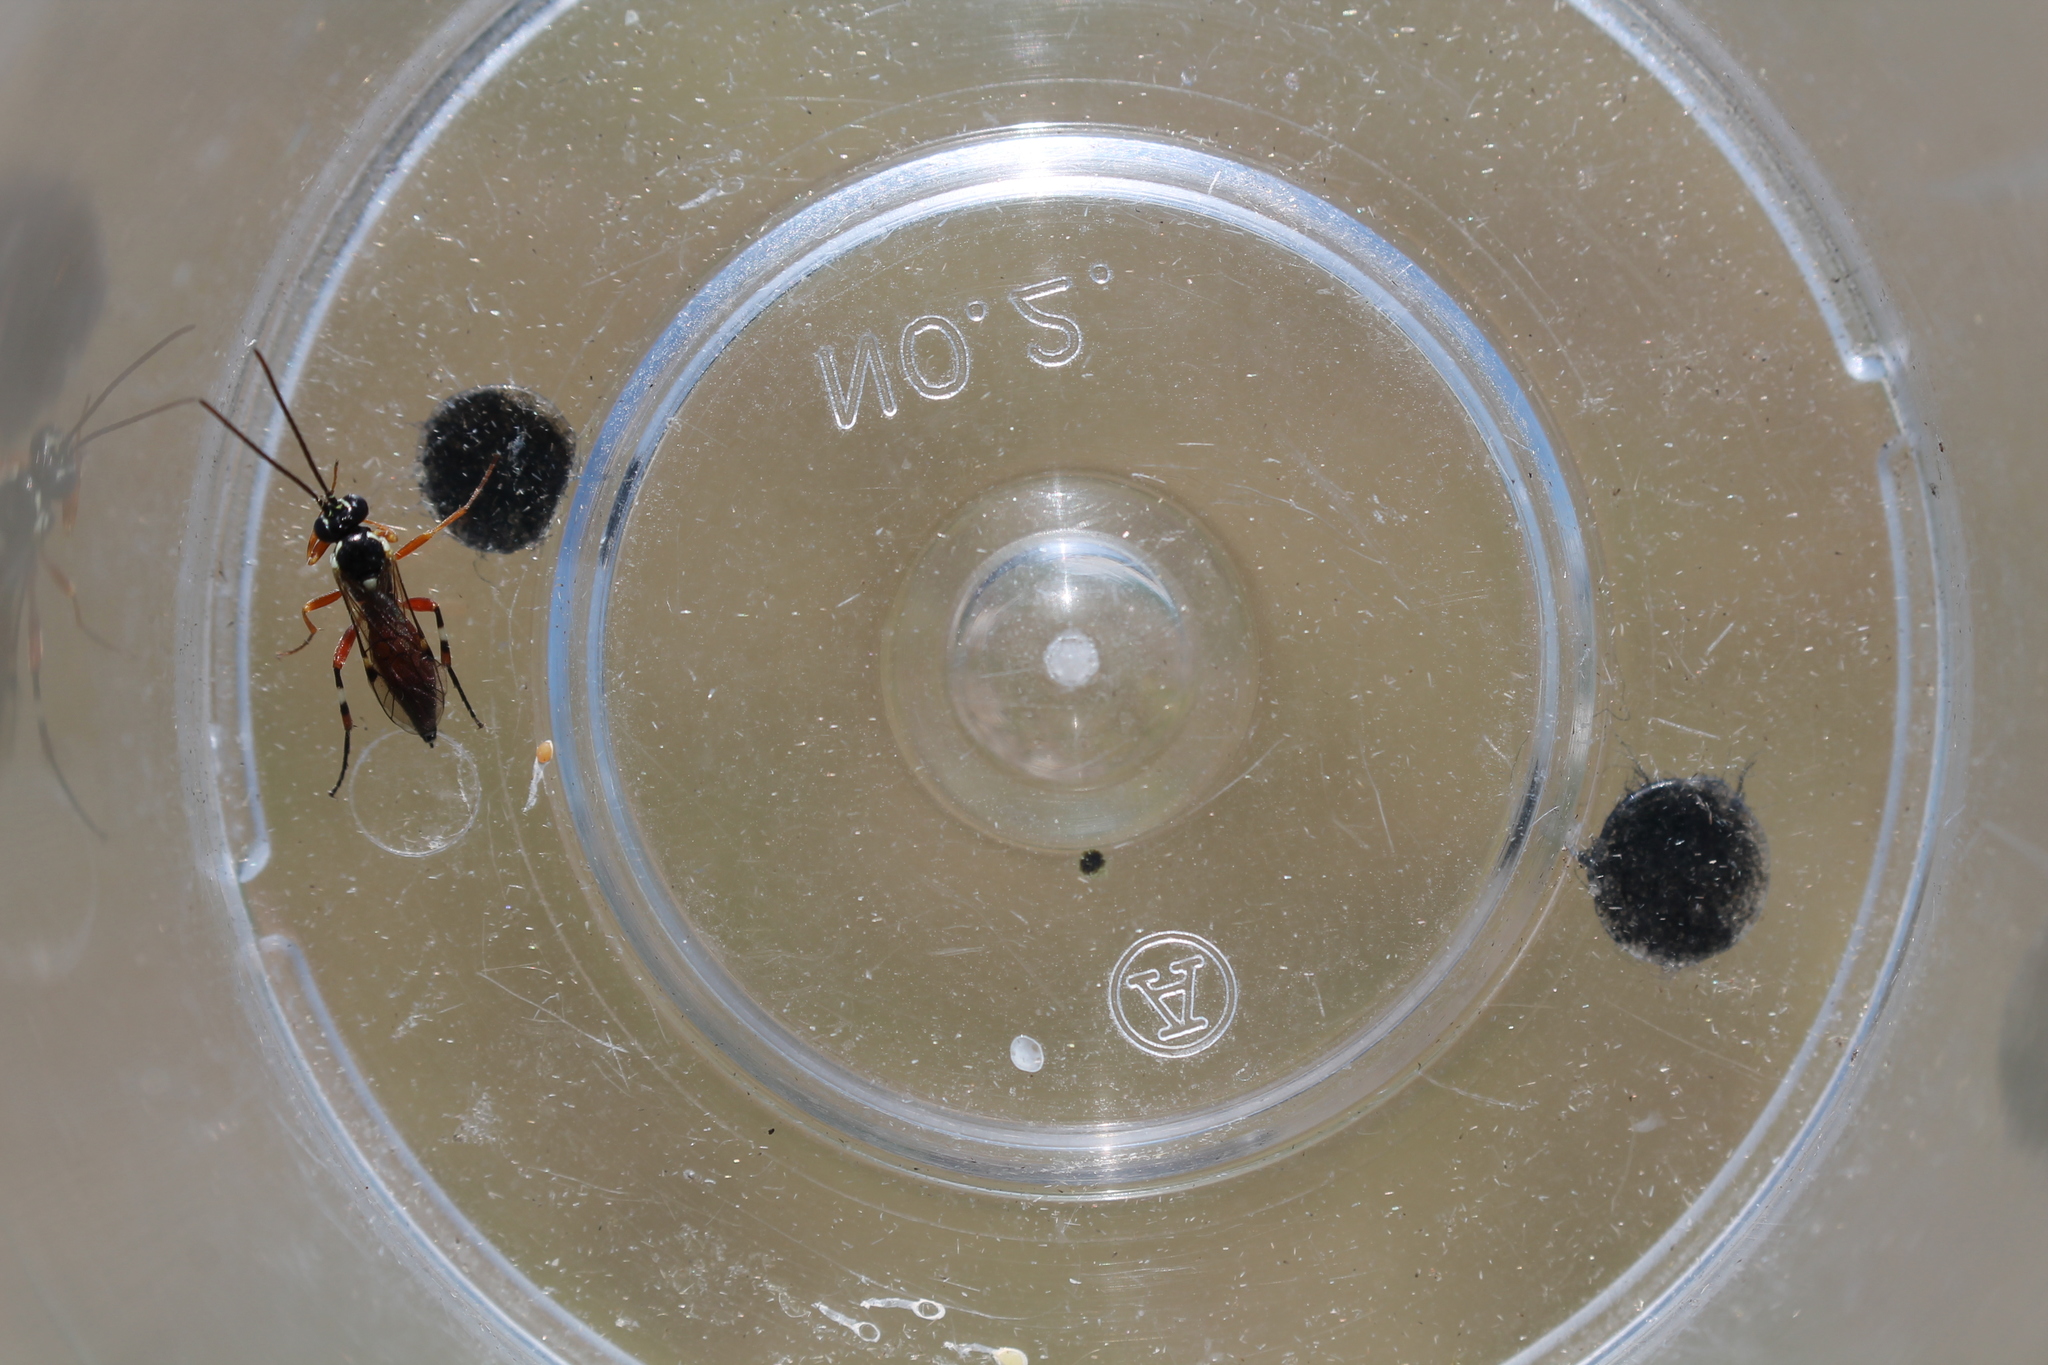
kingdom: Animalia
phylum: Arthropoda
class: Insecta
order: Hymenoptera
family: Ichneumonidae
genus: Diplazon
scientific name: Diplazon laetatorius
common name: Parasitoid wasp
